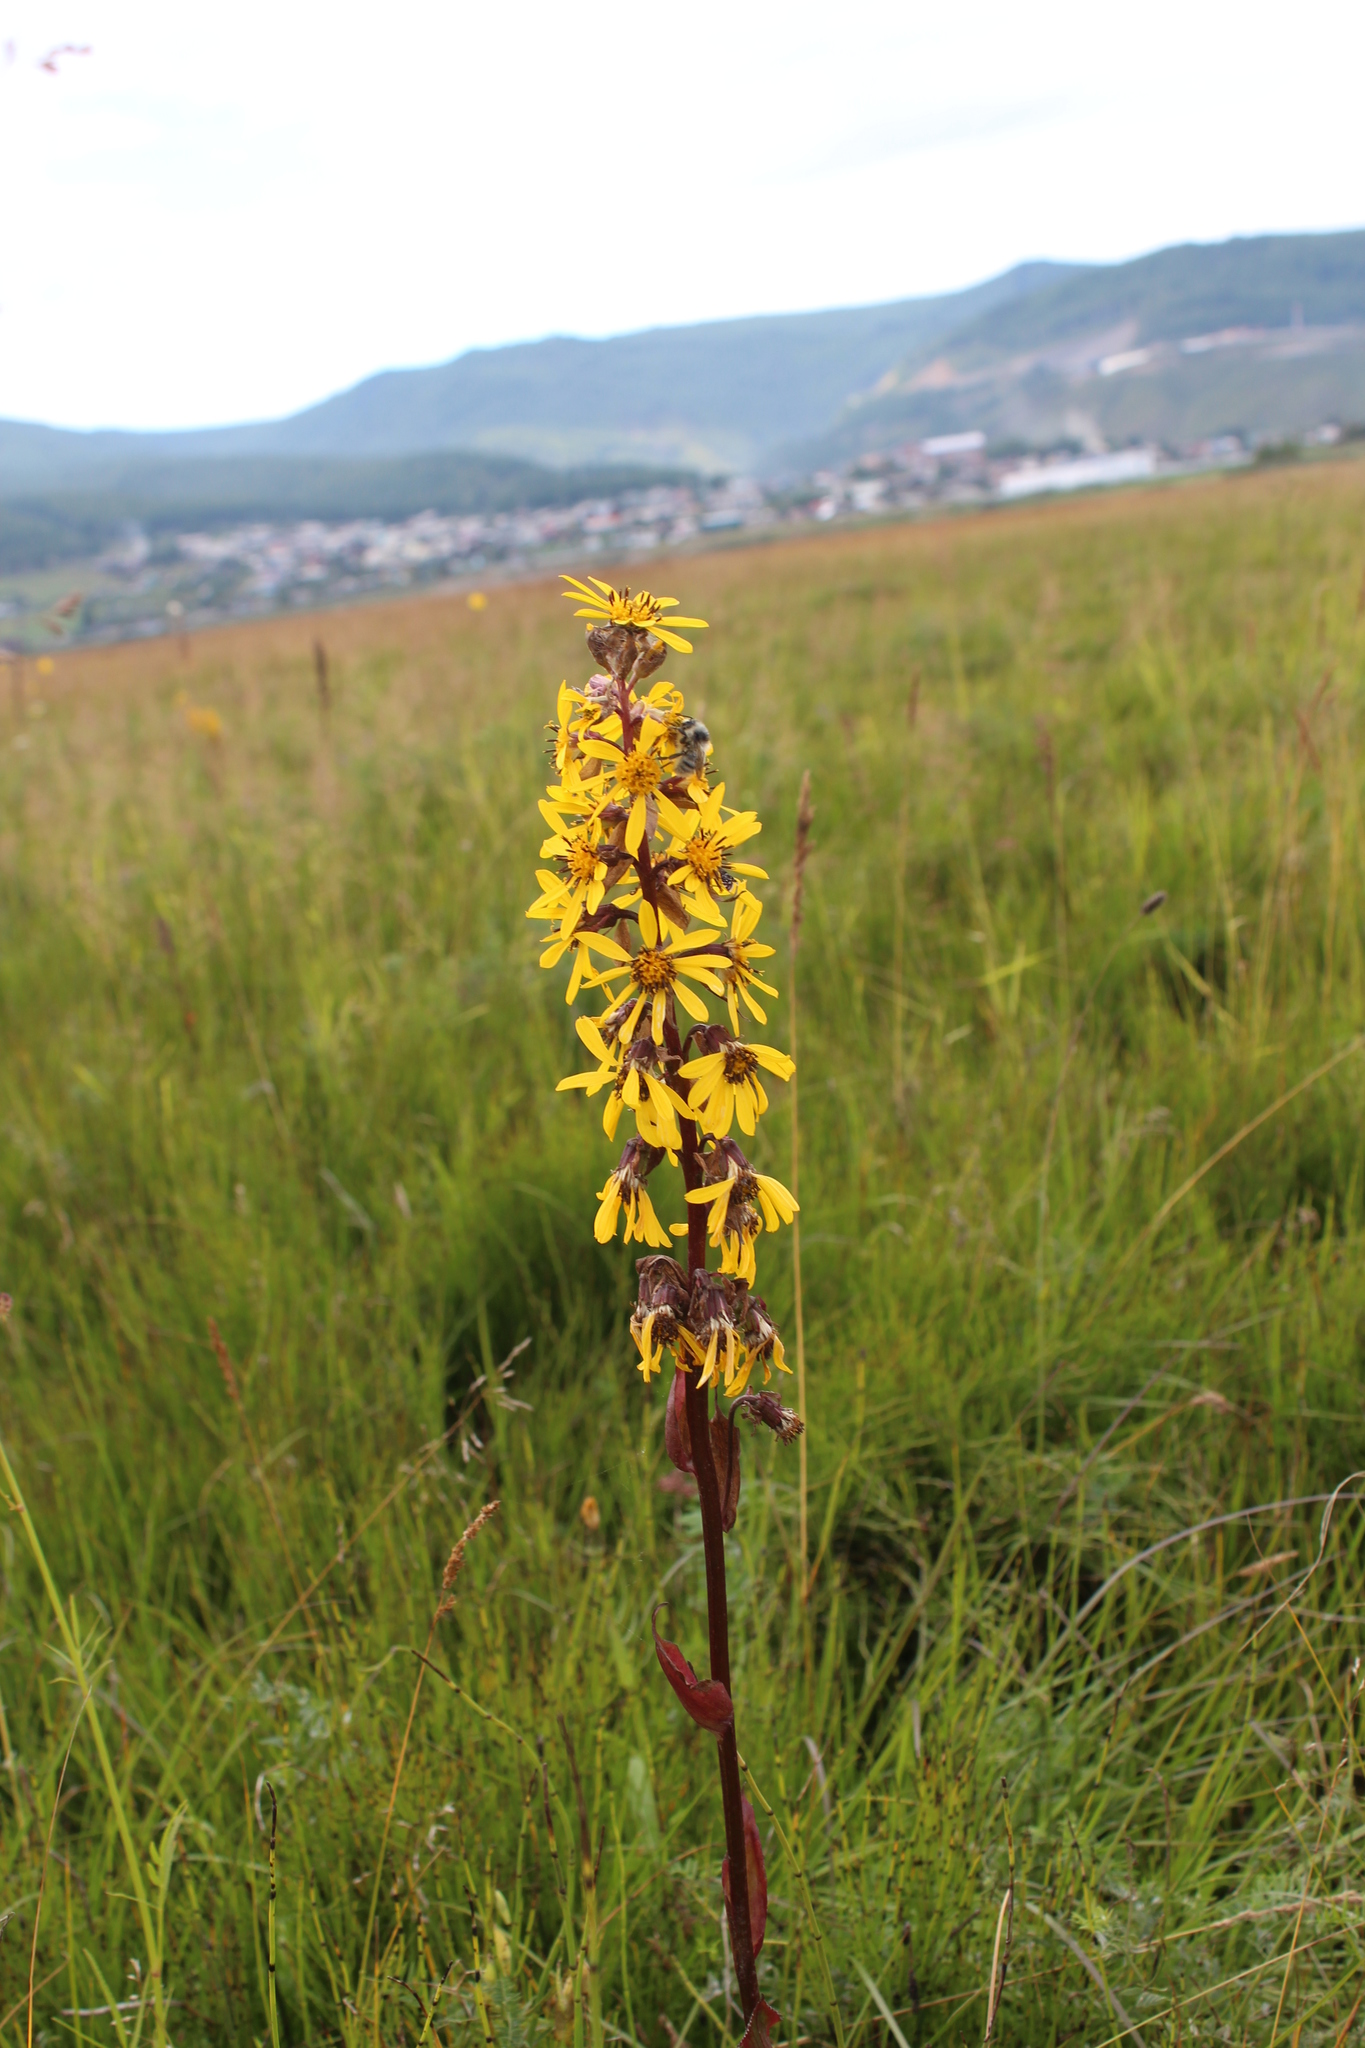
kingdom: Plantae
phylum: Tracheophyta
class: Magnoliopsida
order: Asterales
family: Asteraceae
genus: Ligularia
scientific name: Ligularia sibirica
